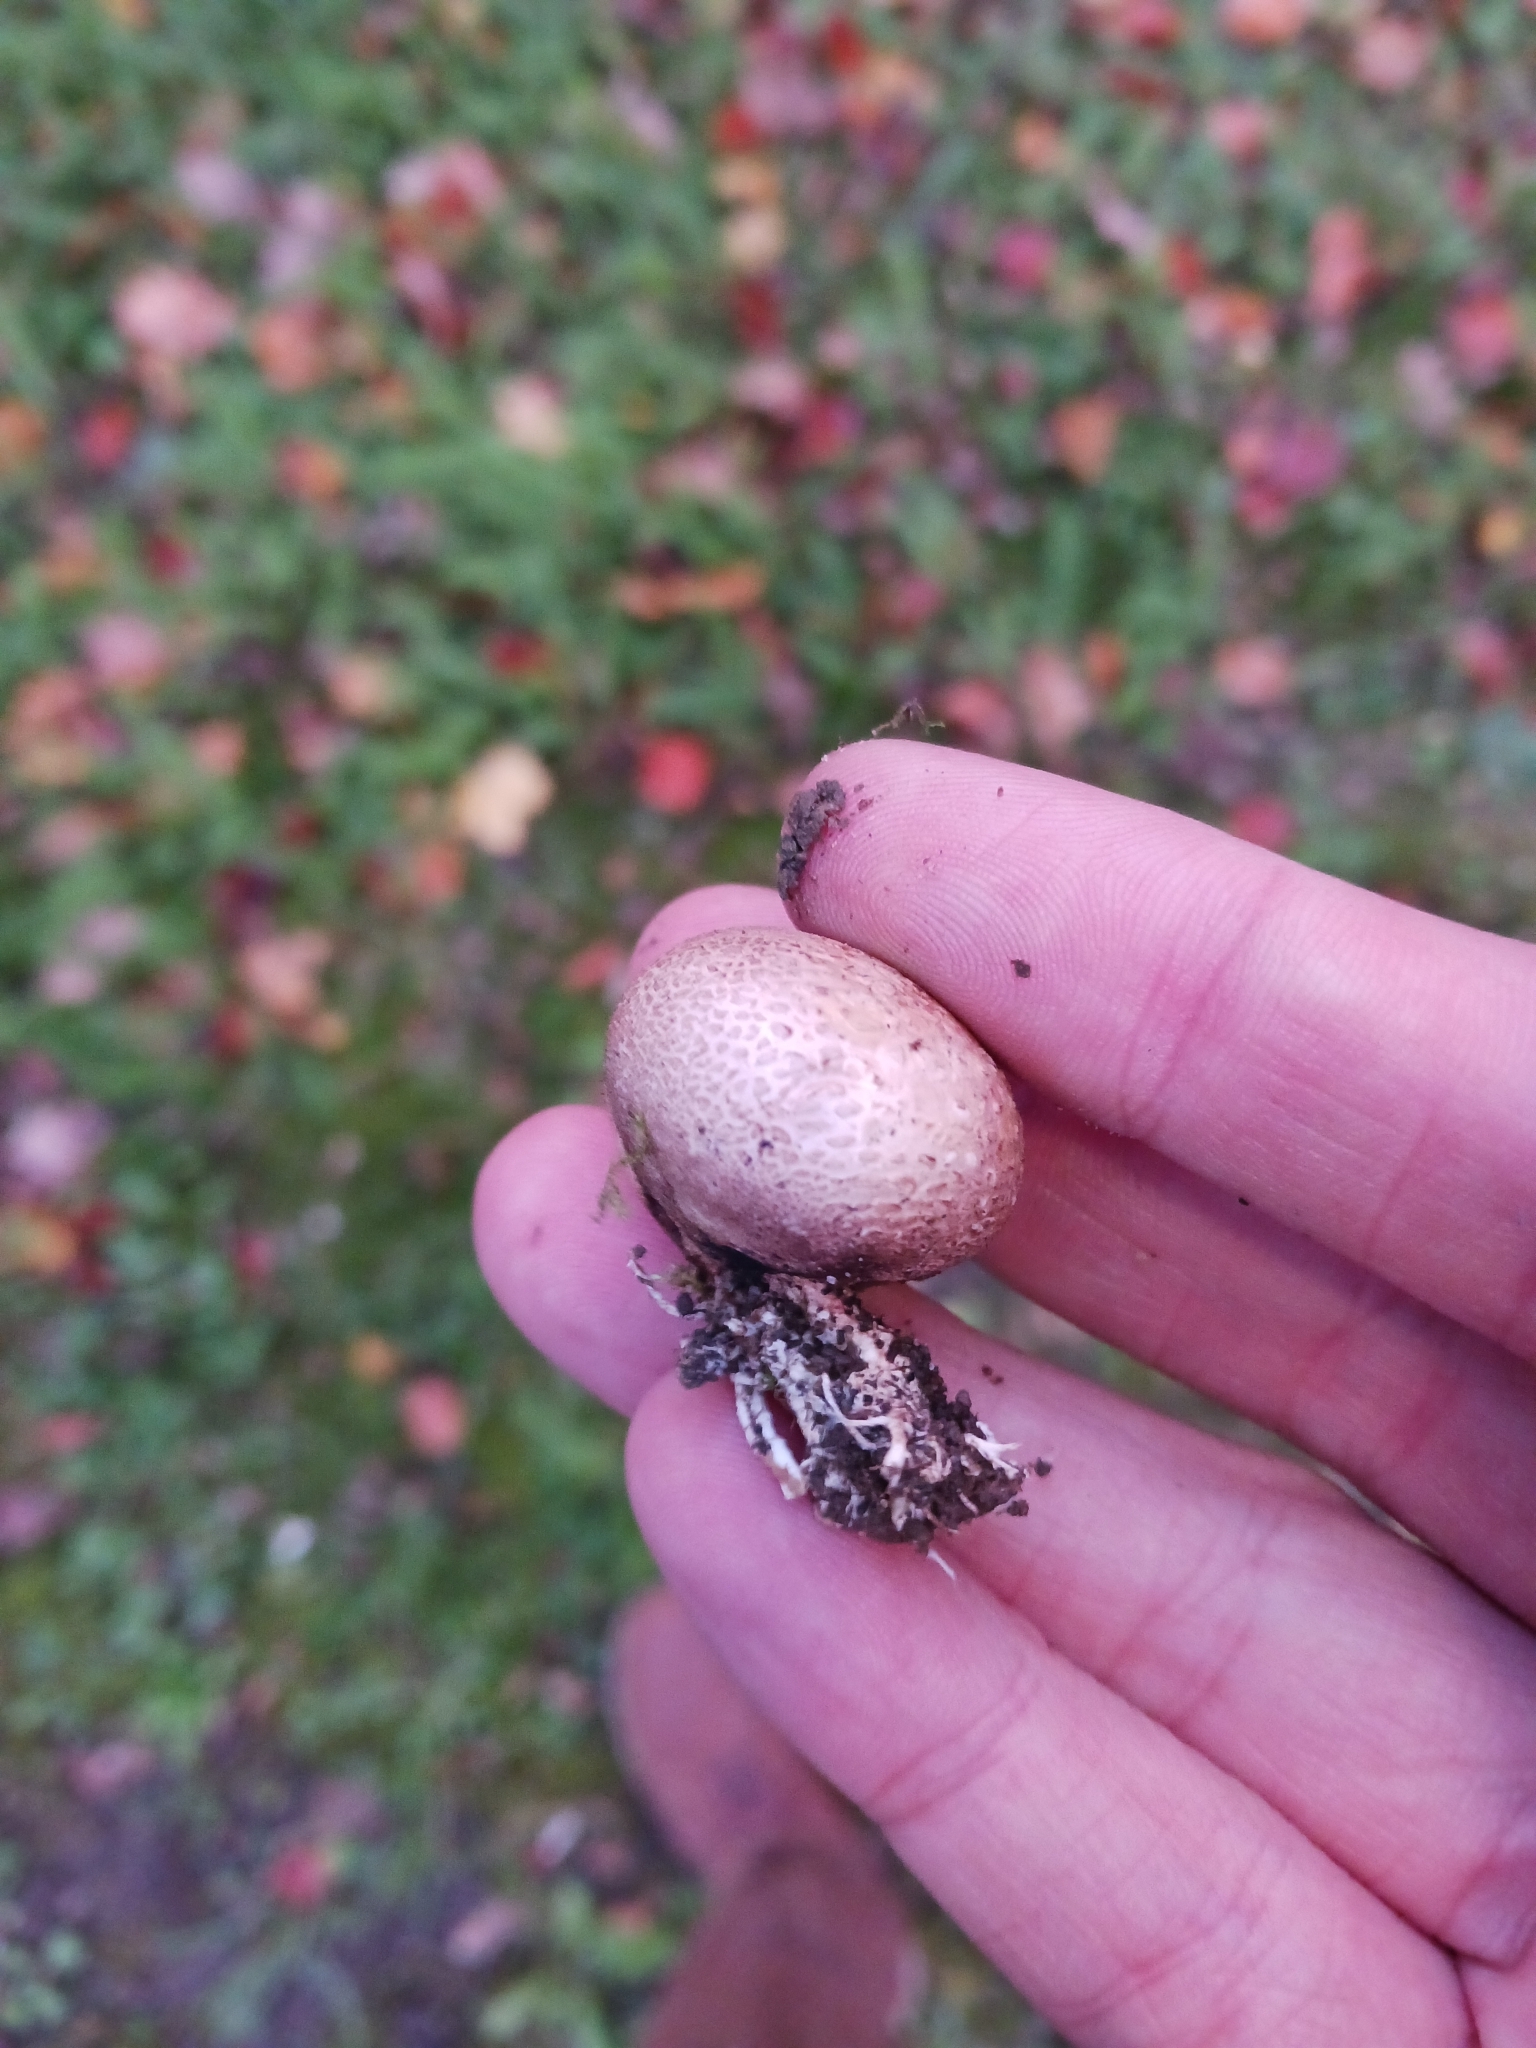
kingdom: Fungi
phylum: Basidiomycota
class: Agaricomycetes
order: Boletales
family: Sclerodermataceae
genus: Scleroderma
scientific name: Scleroderma citrinum
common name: Common earthball
